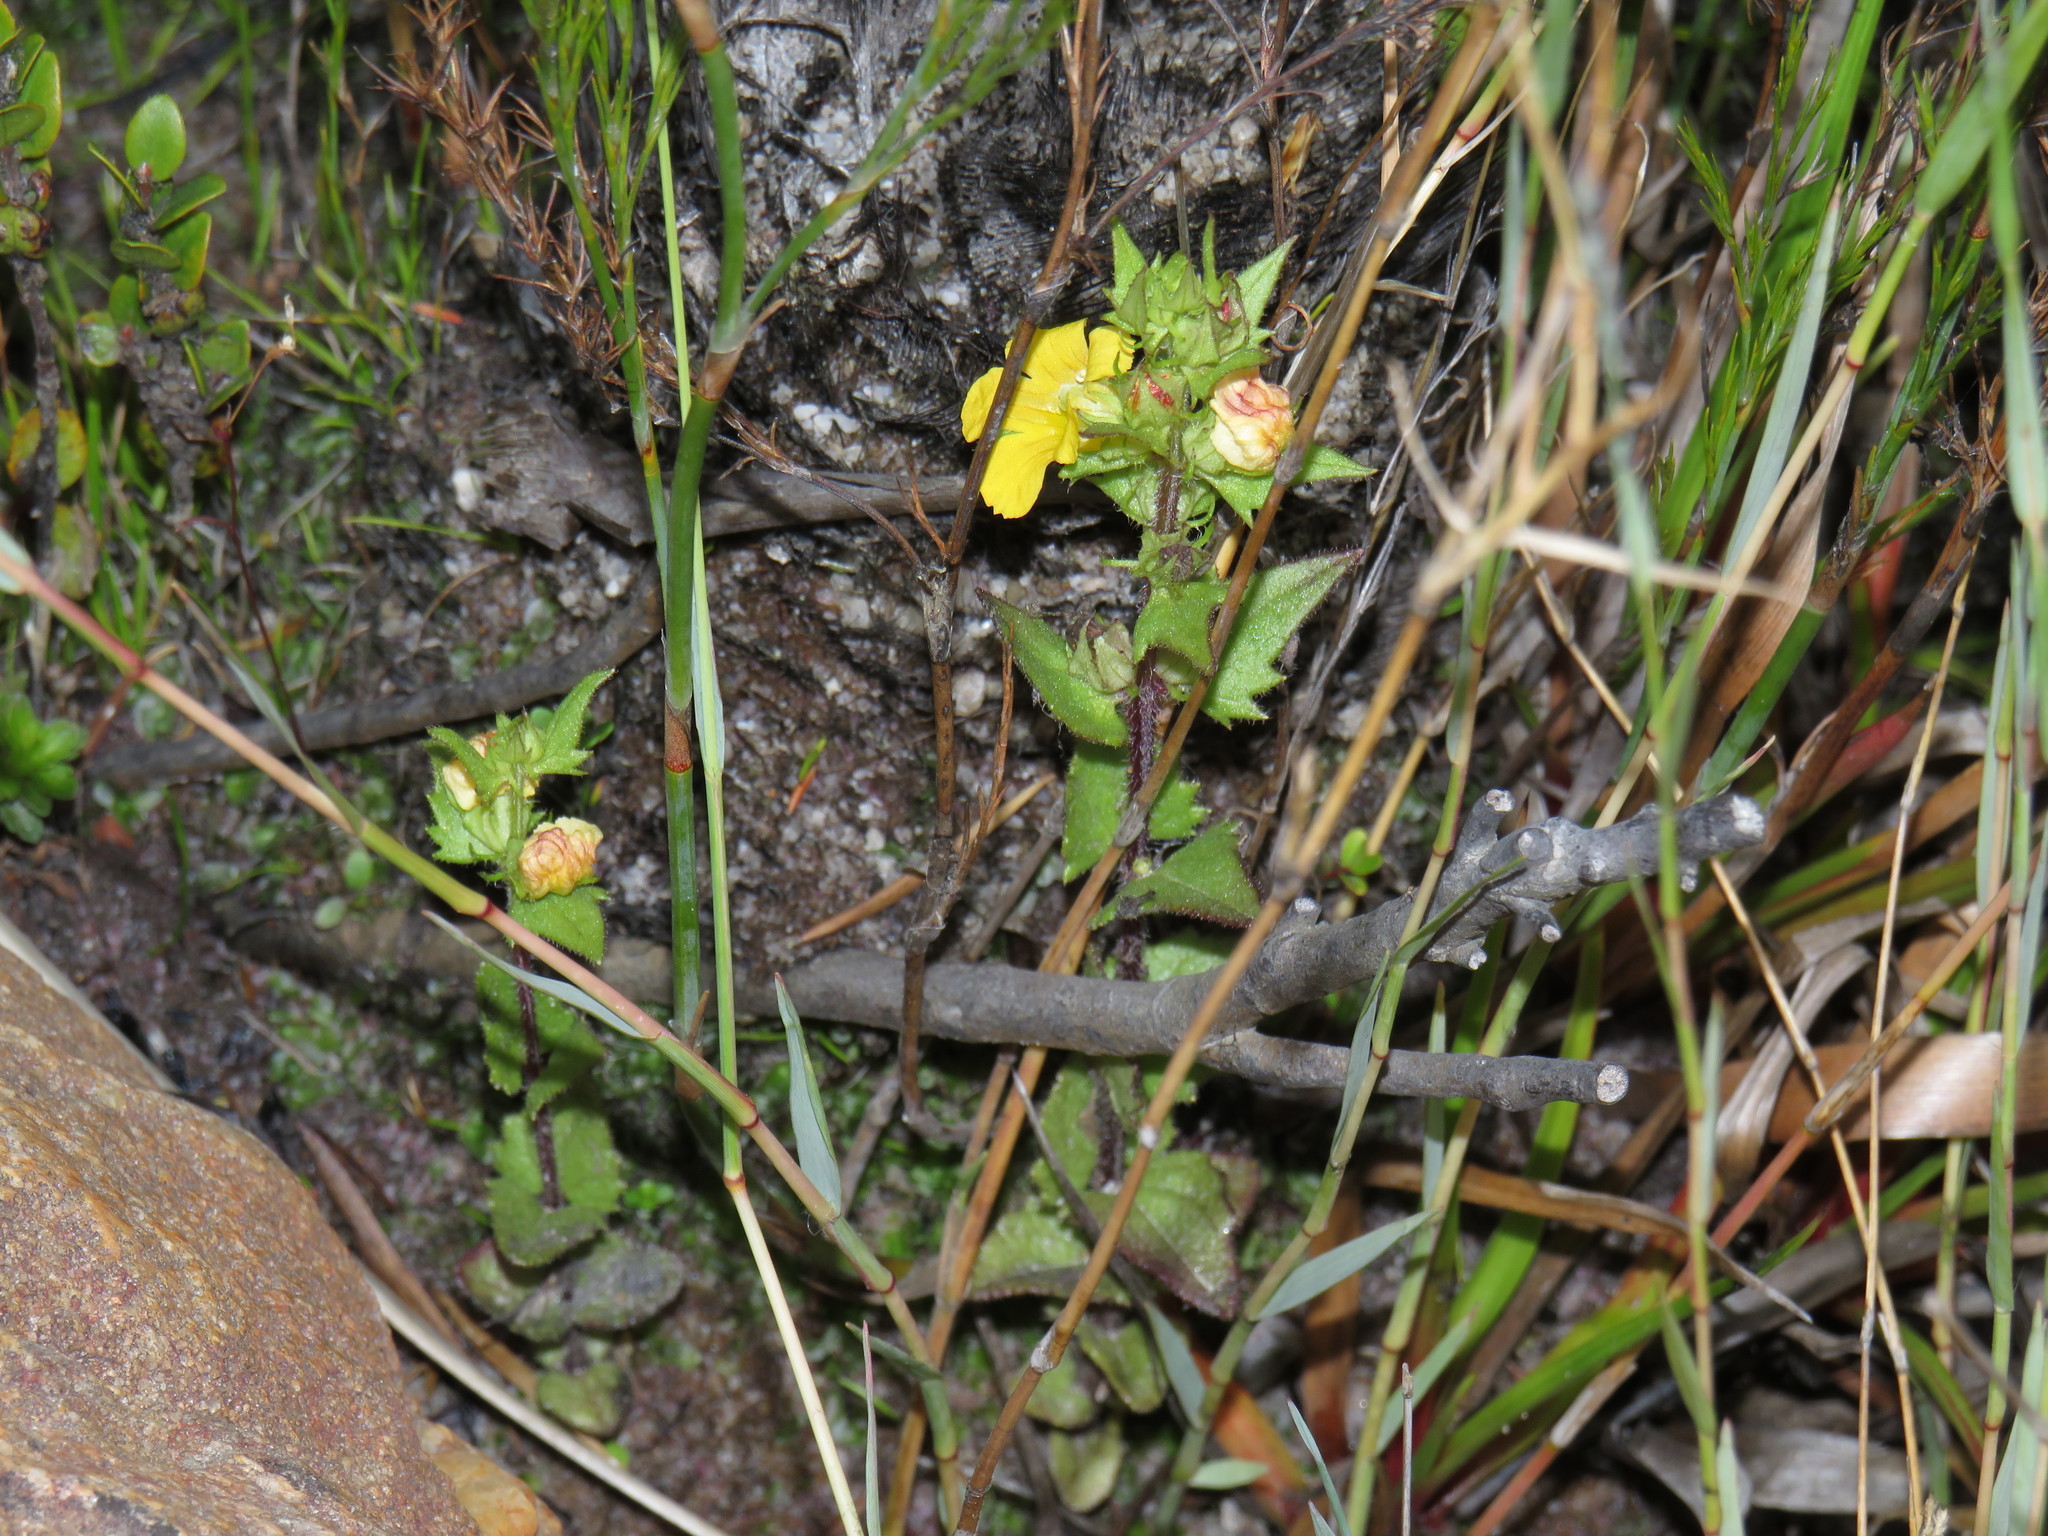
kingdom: Plantae
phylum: Tracheophyta
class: Magnoliopsida
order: Lamiales
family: Orobanchaceae
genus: Alectra
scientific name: Alectra sessiliflora
